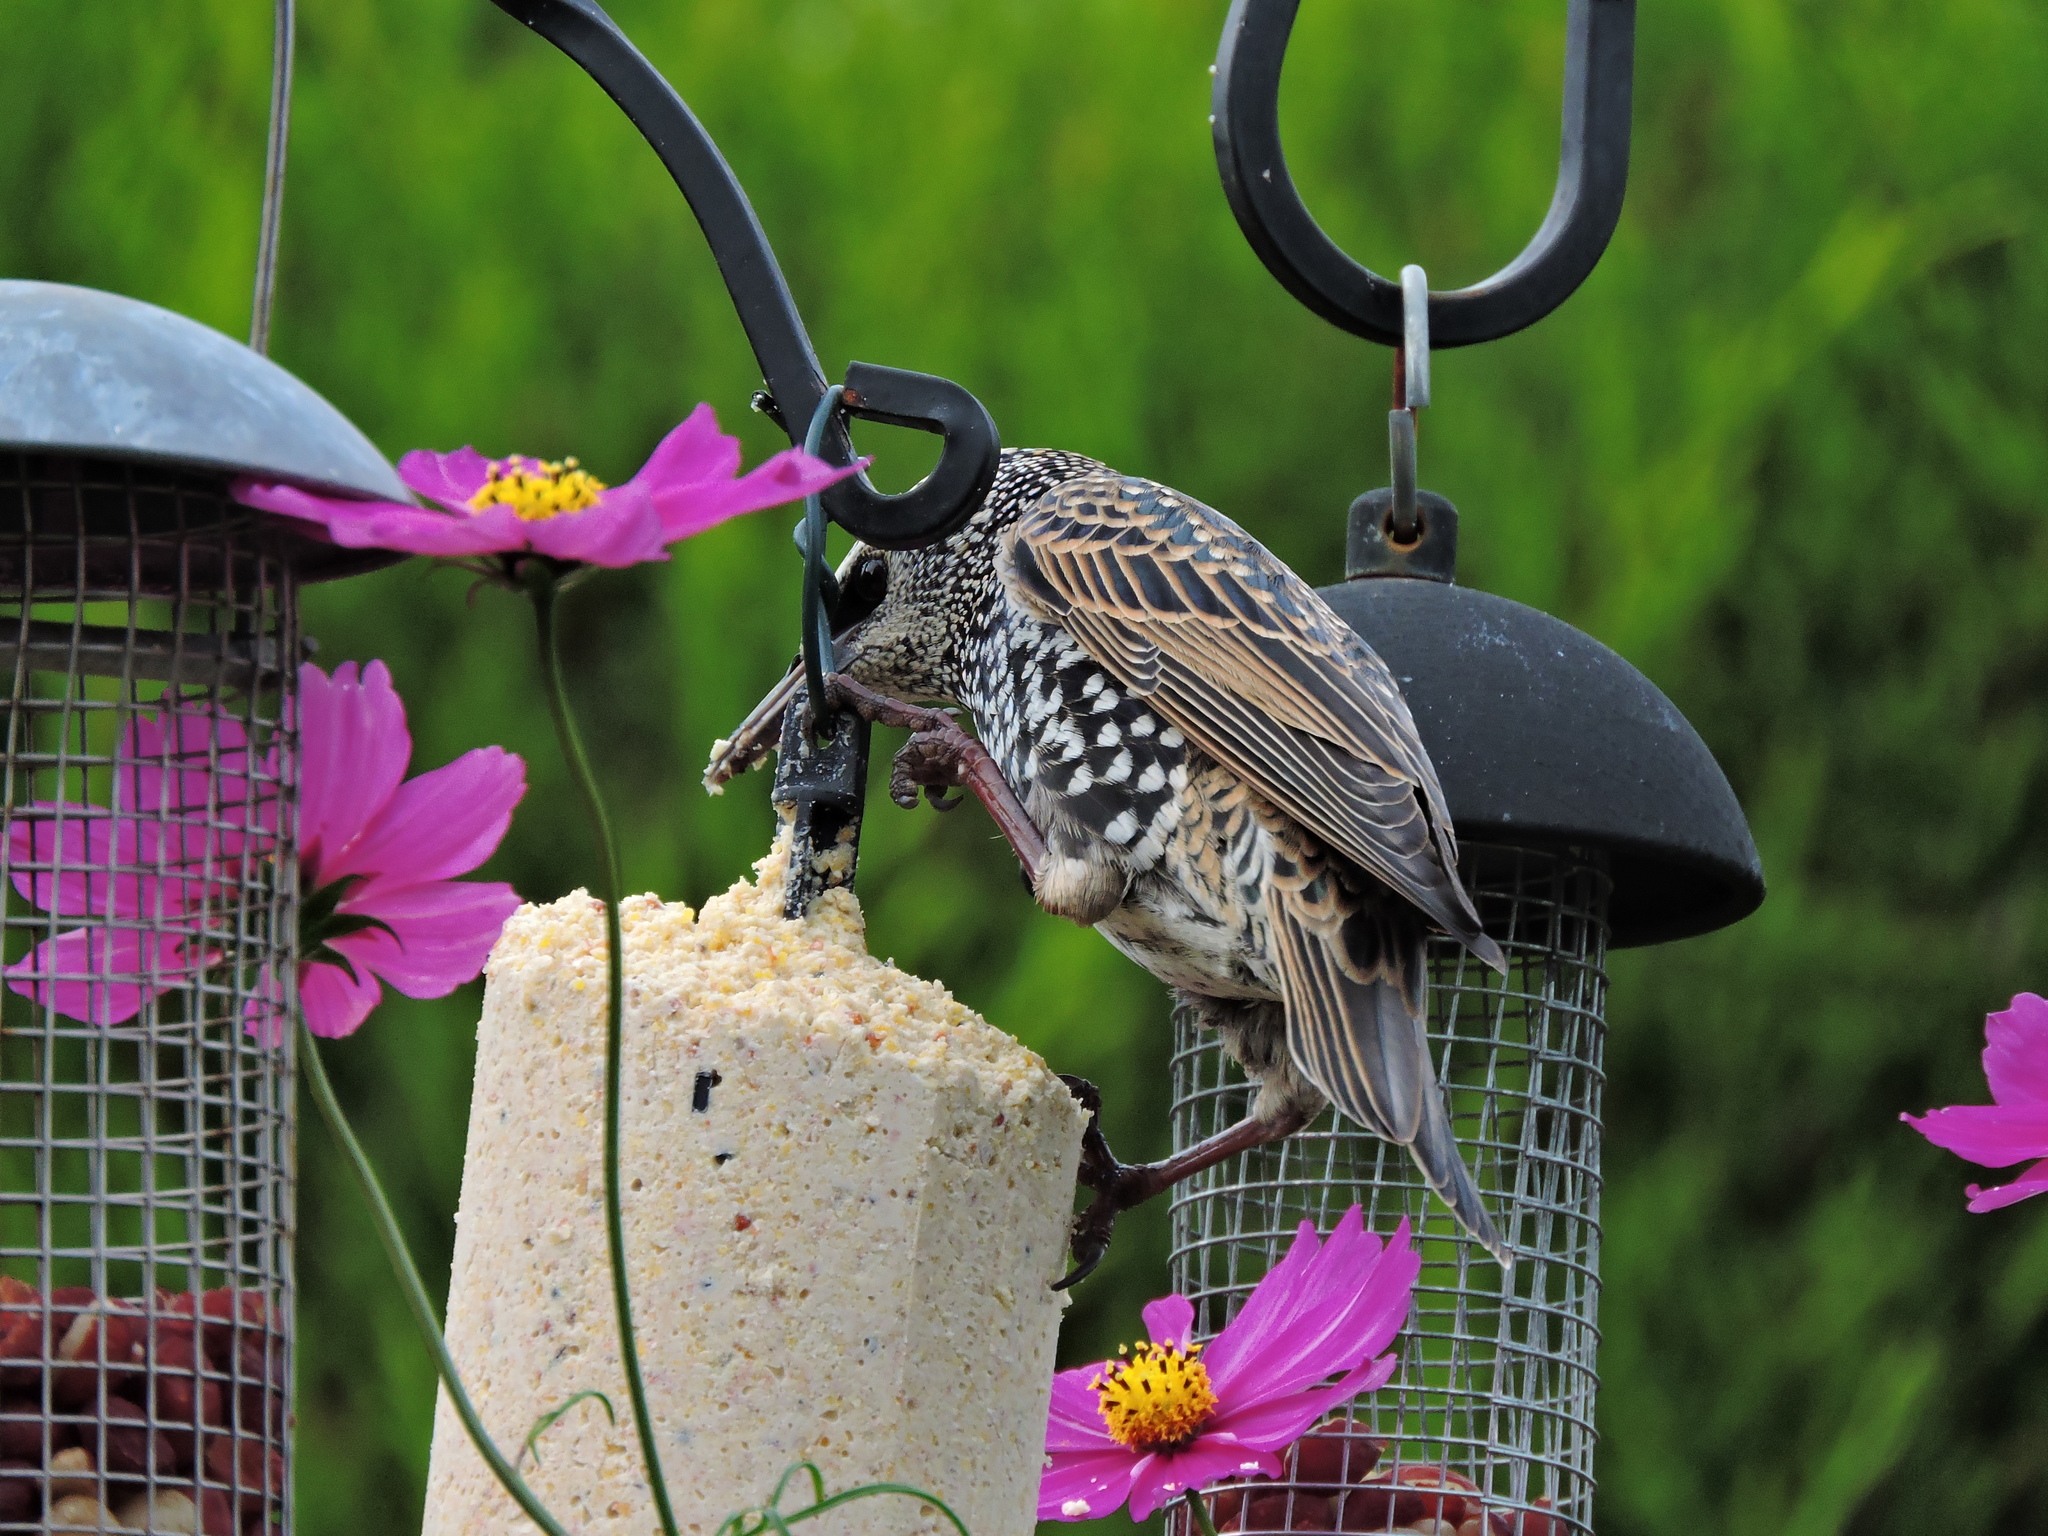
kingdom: Animalia
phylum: Chordata
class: Aves
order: Passeriformes
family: Sturnidae
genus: Sturnus
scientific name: Sturnus vulgaris
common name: Common starling
